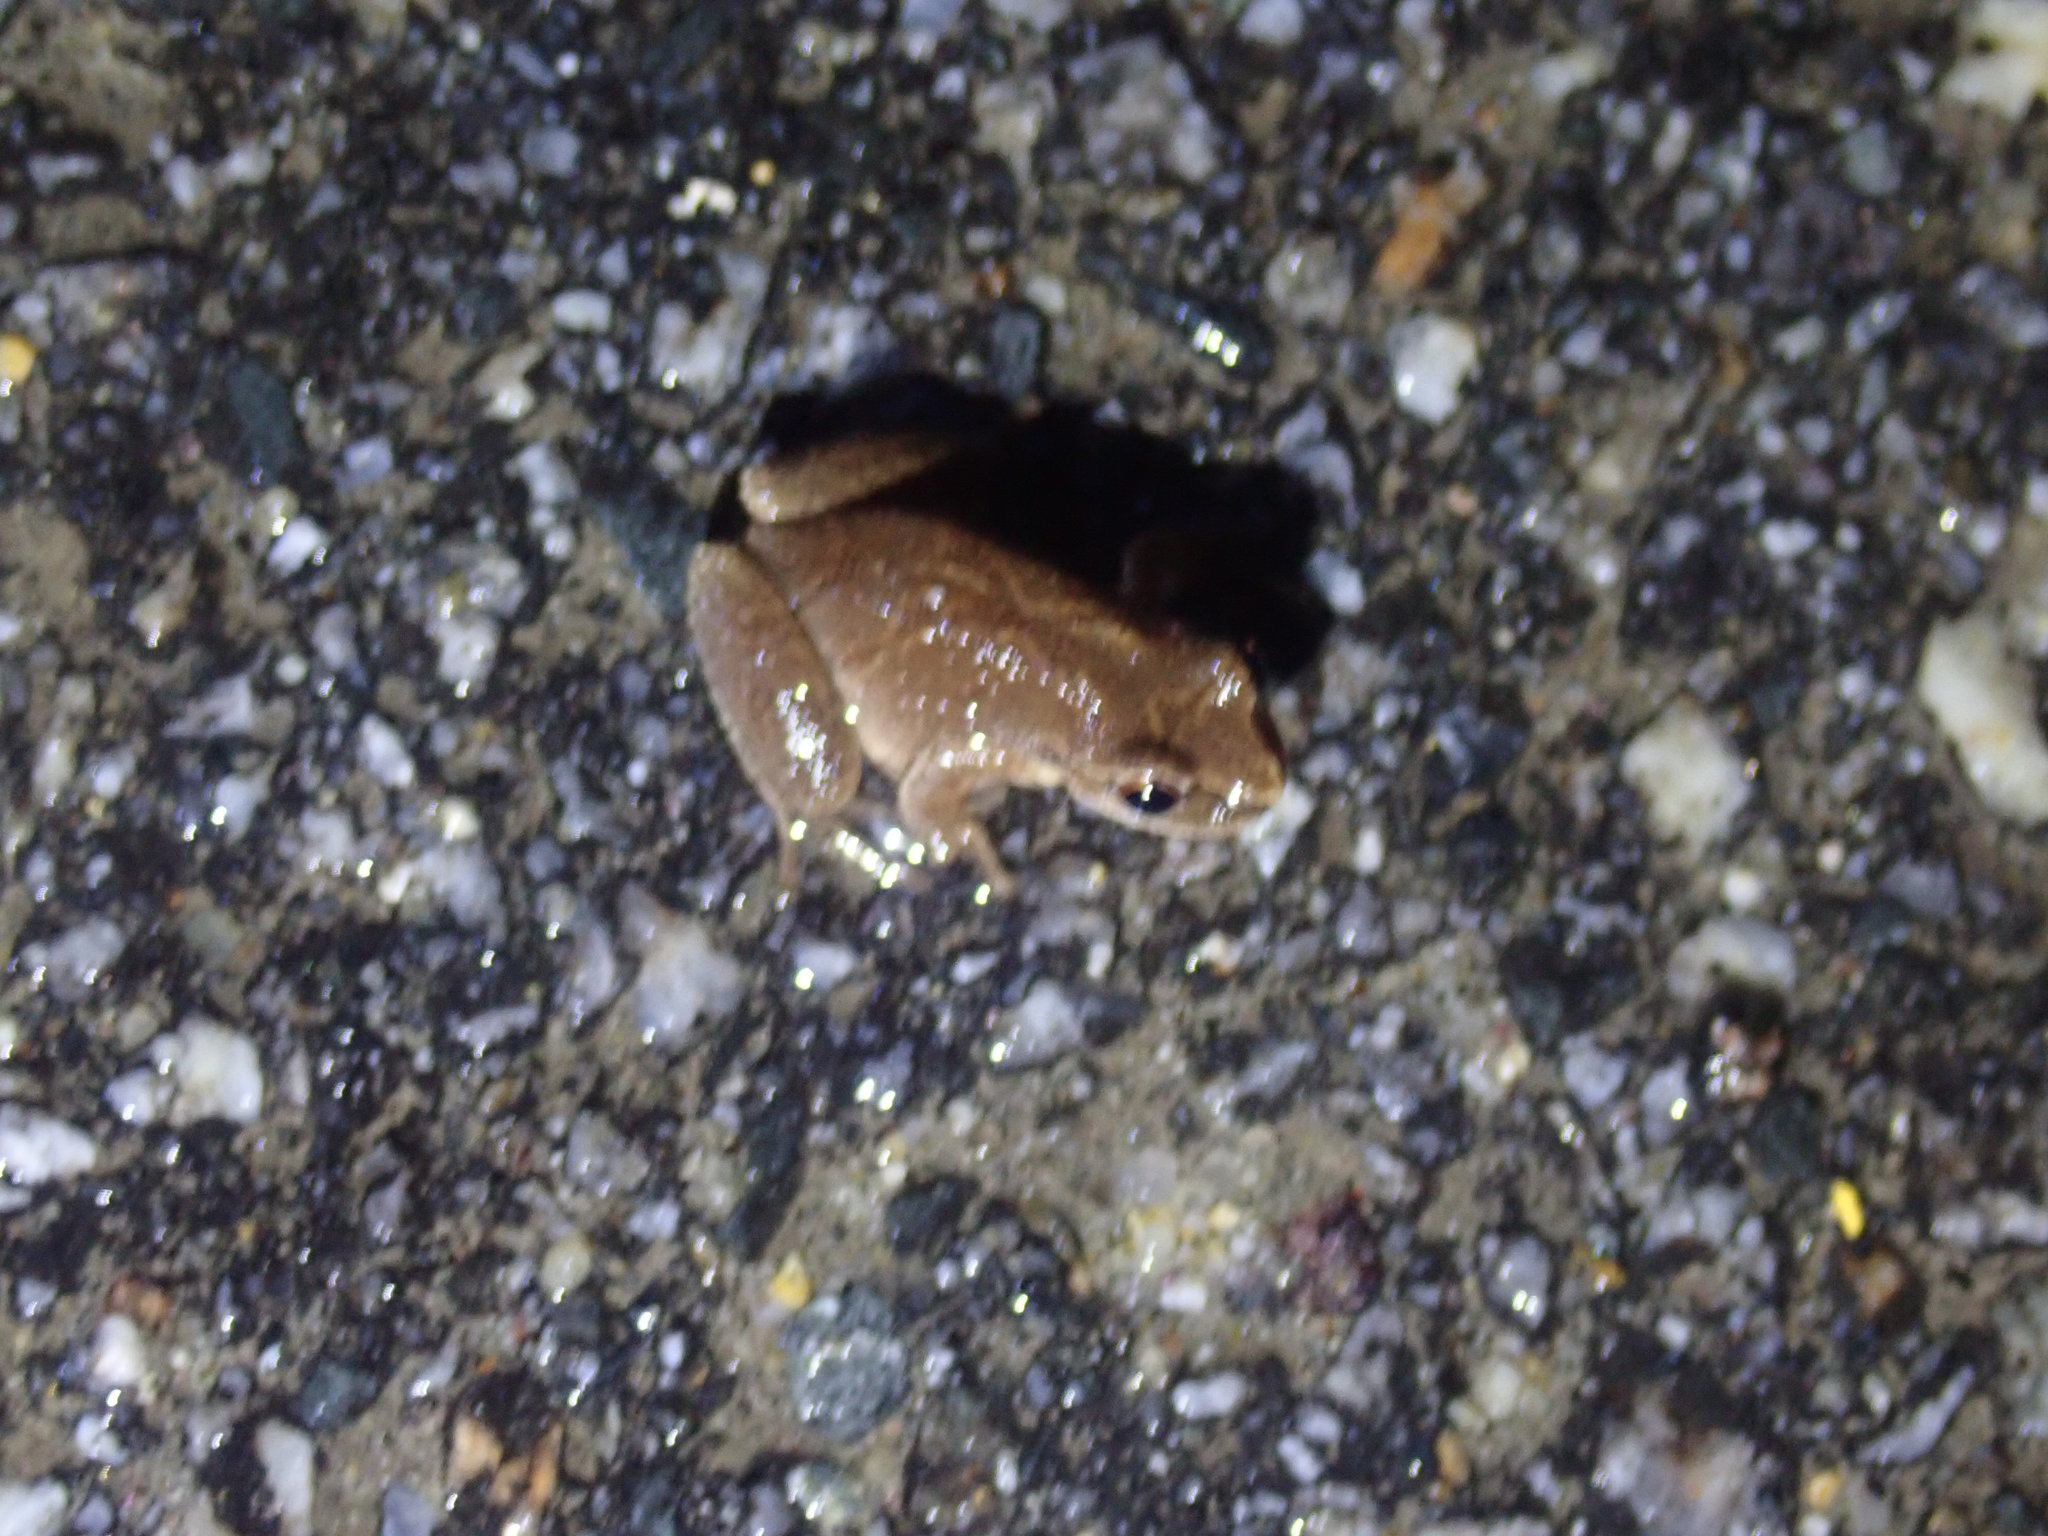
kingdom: Animalia
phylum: Chordata
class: Amphibia
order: Anura
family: Hylidae
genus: Pseudacris
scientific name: Pseudacris crucifer
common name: Spring peeper
